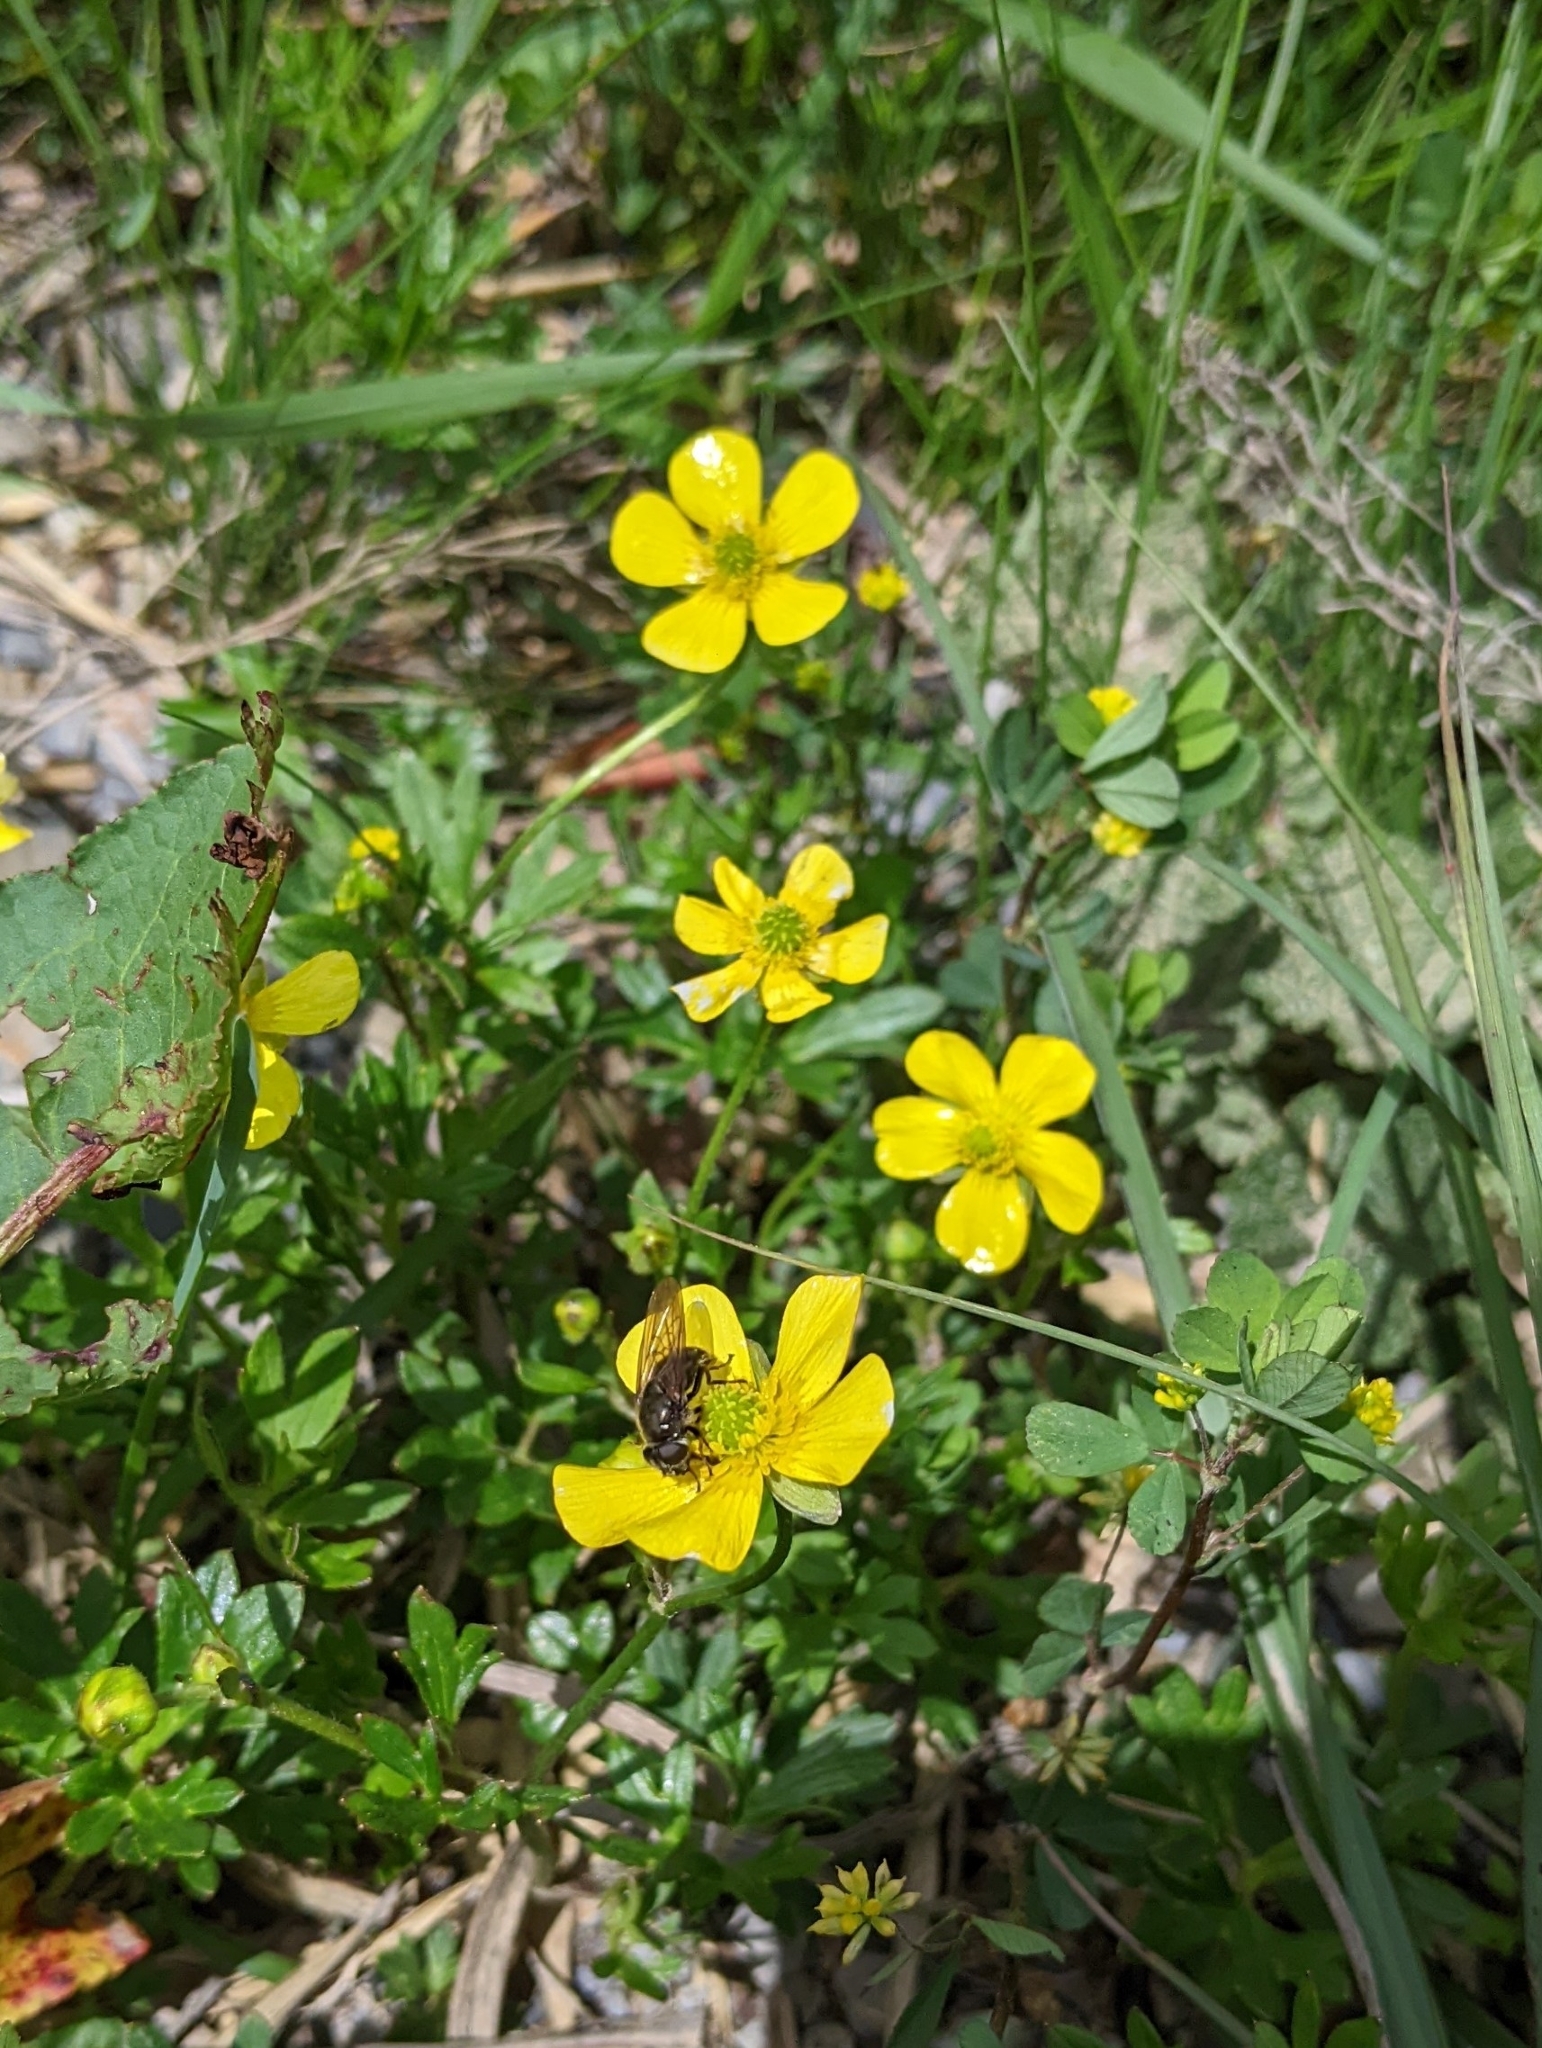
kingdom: Plantae
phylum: Tracheophyta
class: Magnoliopsida
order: Ranunculales
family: Ranunculaceae
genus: Ranunculus
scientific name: Ranunculus formosa-montanus
